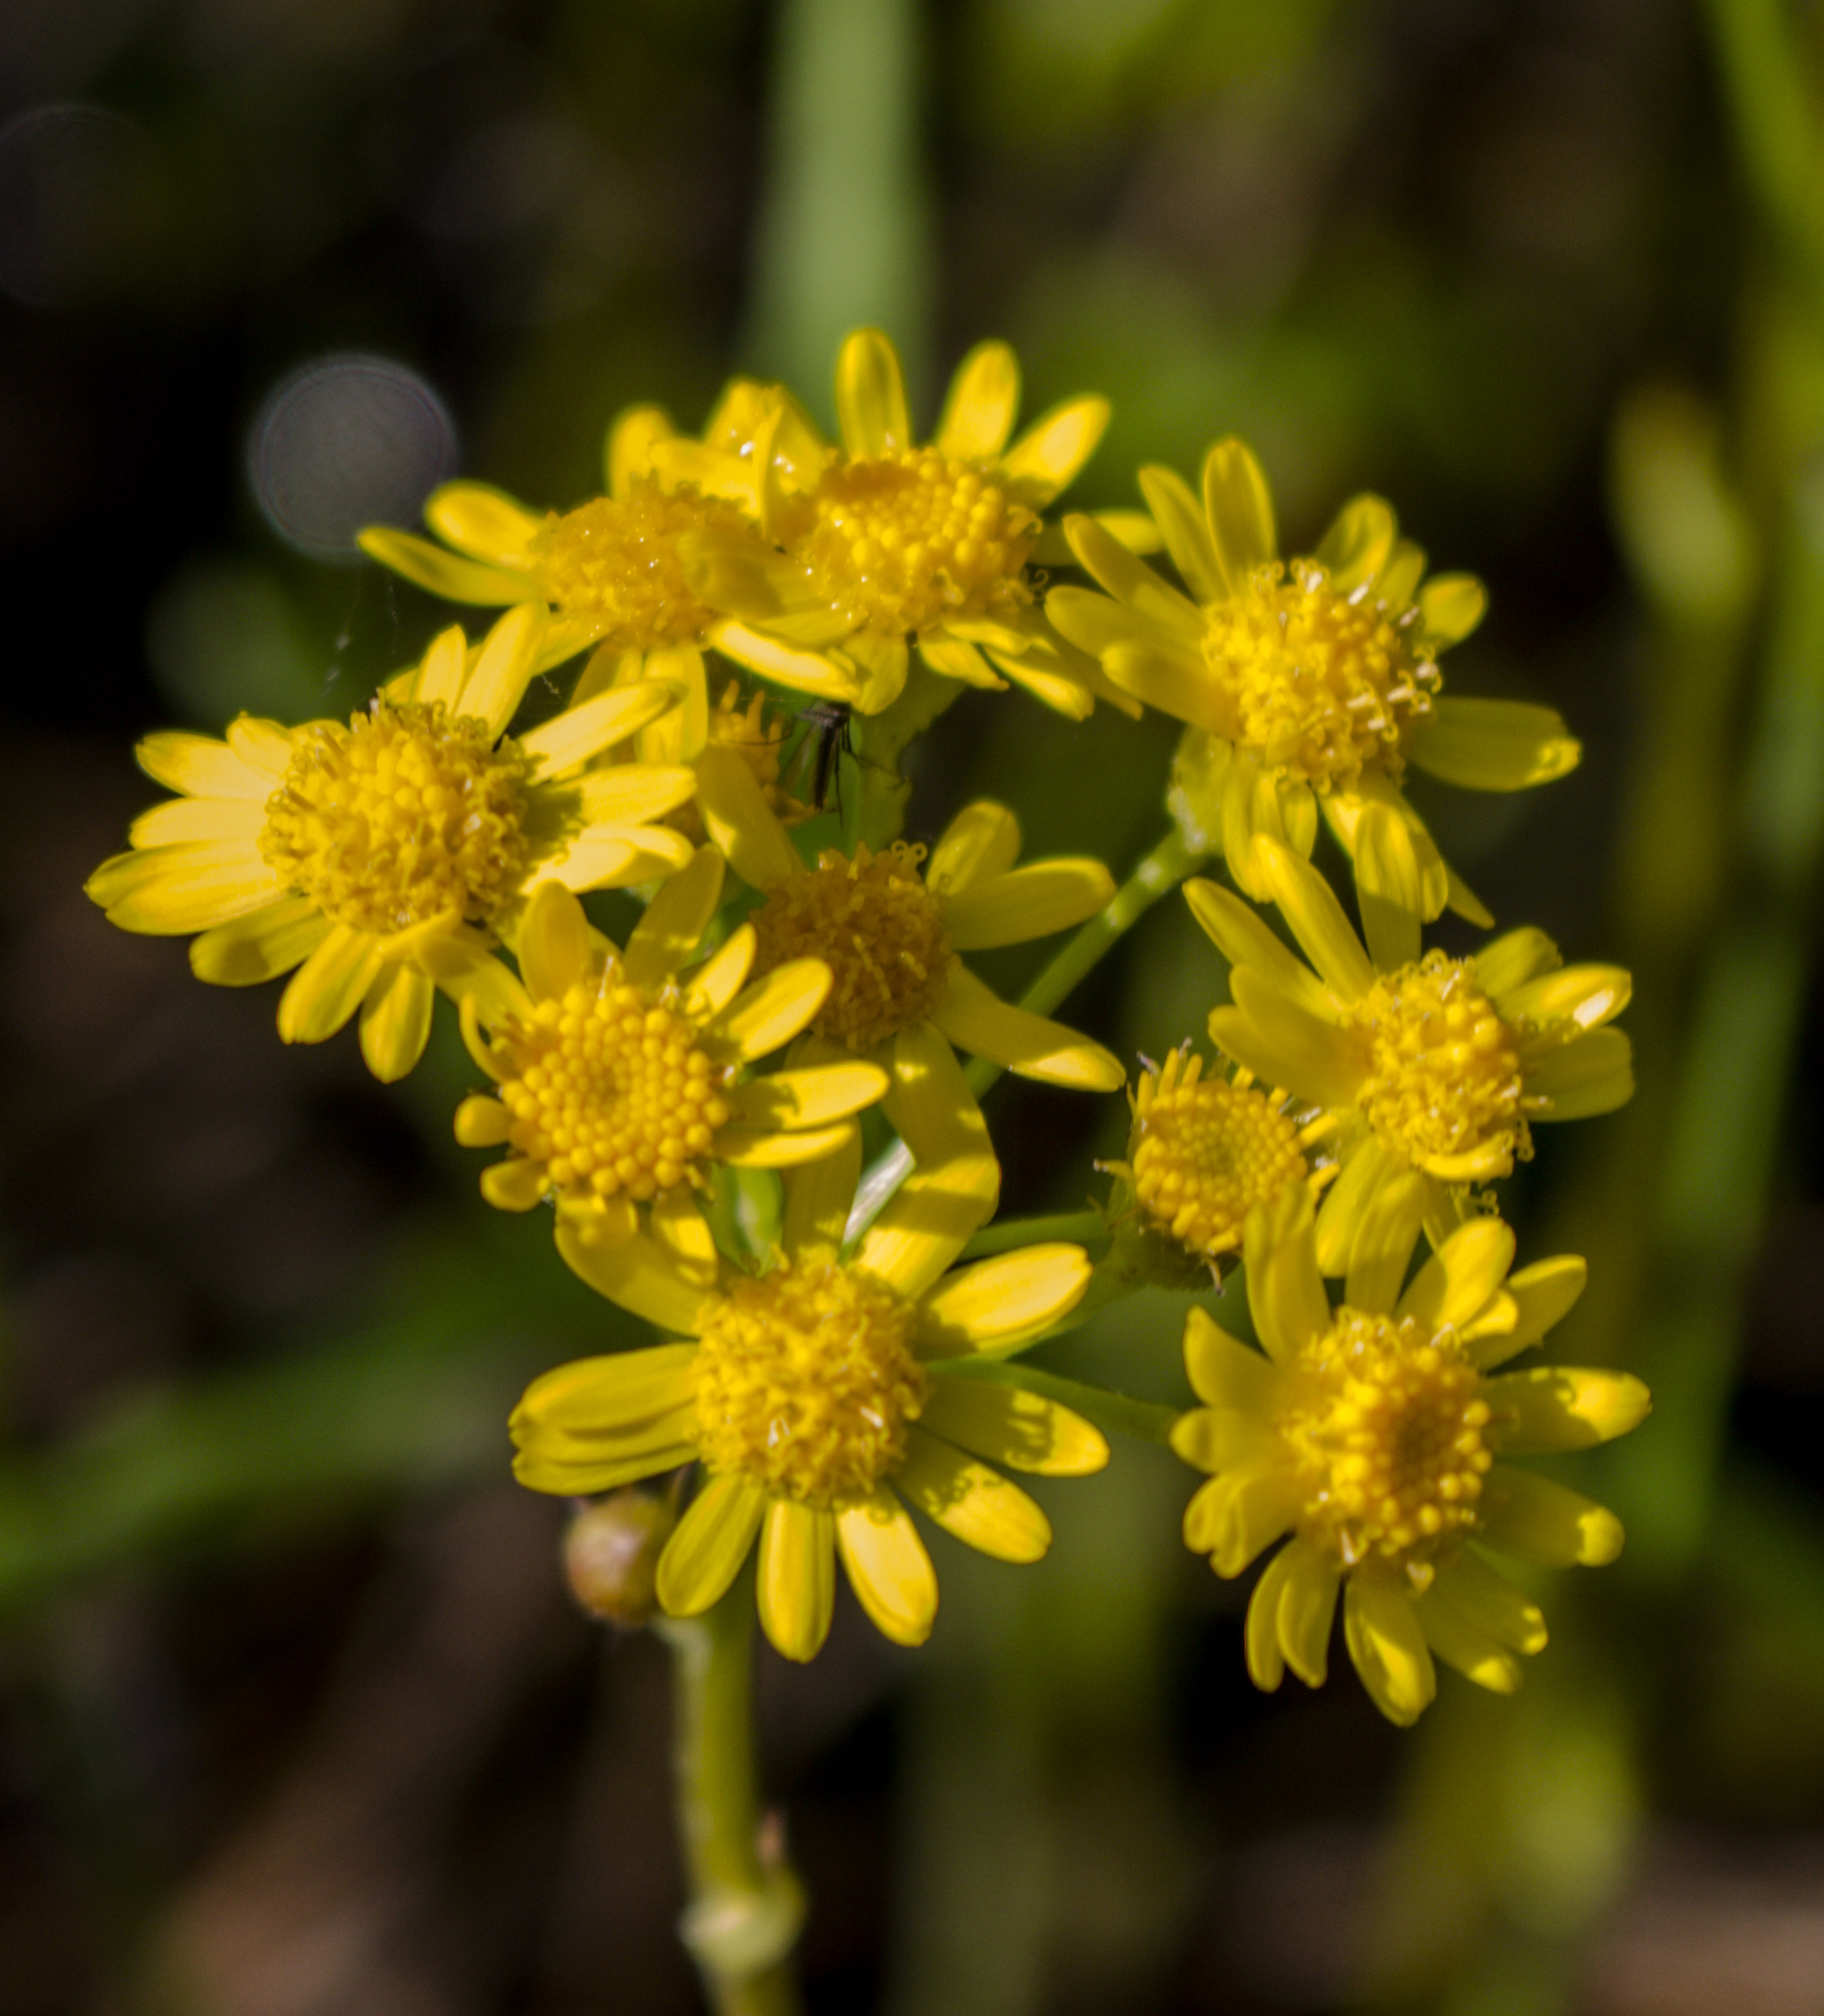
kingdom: Plantae
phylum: Tracheophyta
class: Magnoliopsida
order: Asterales
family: Asteraceae
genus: Packera
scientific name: Packera aurea
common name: Golden groundsel
